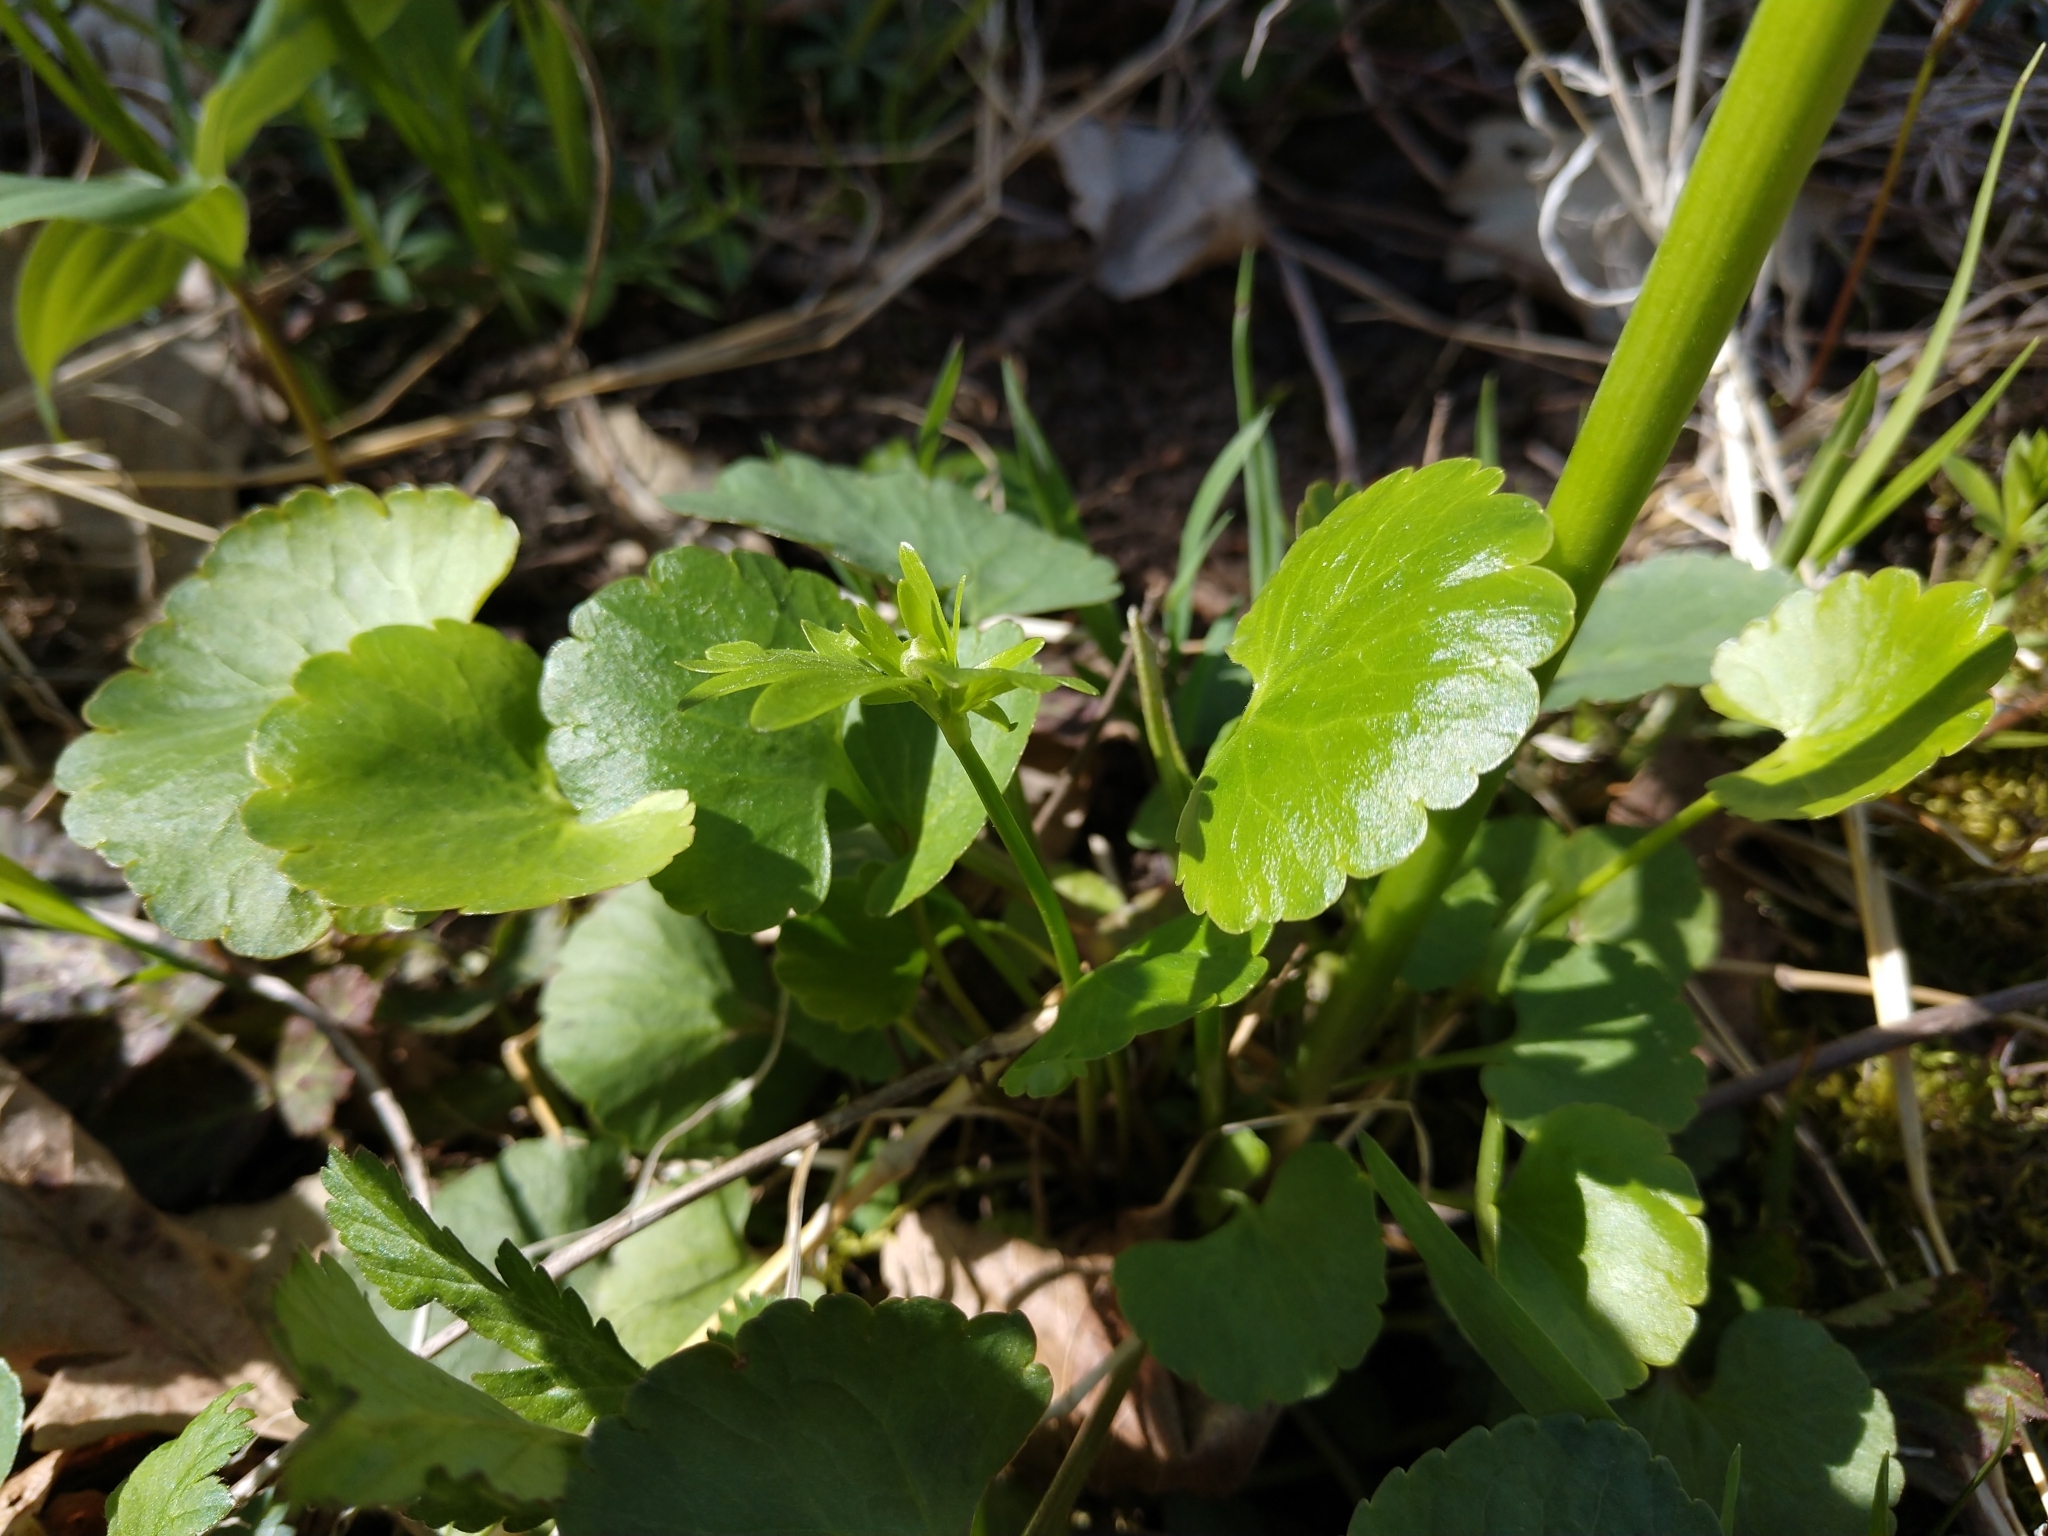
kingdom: Plantae
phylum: Tracheophyta
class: Magnoliopsida
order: Ranunculales
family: Ranunculaceae
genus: Ranunculus
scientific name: Ranunculus abortivus
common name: Early wood buttercup
